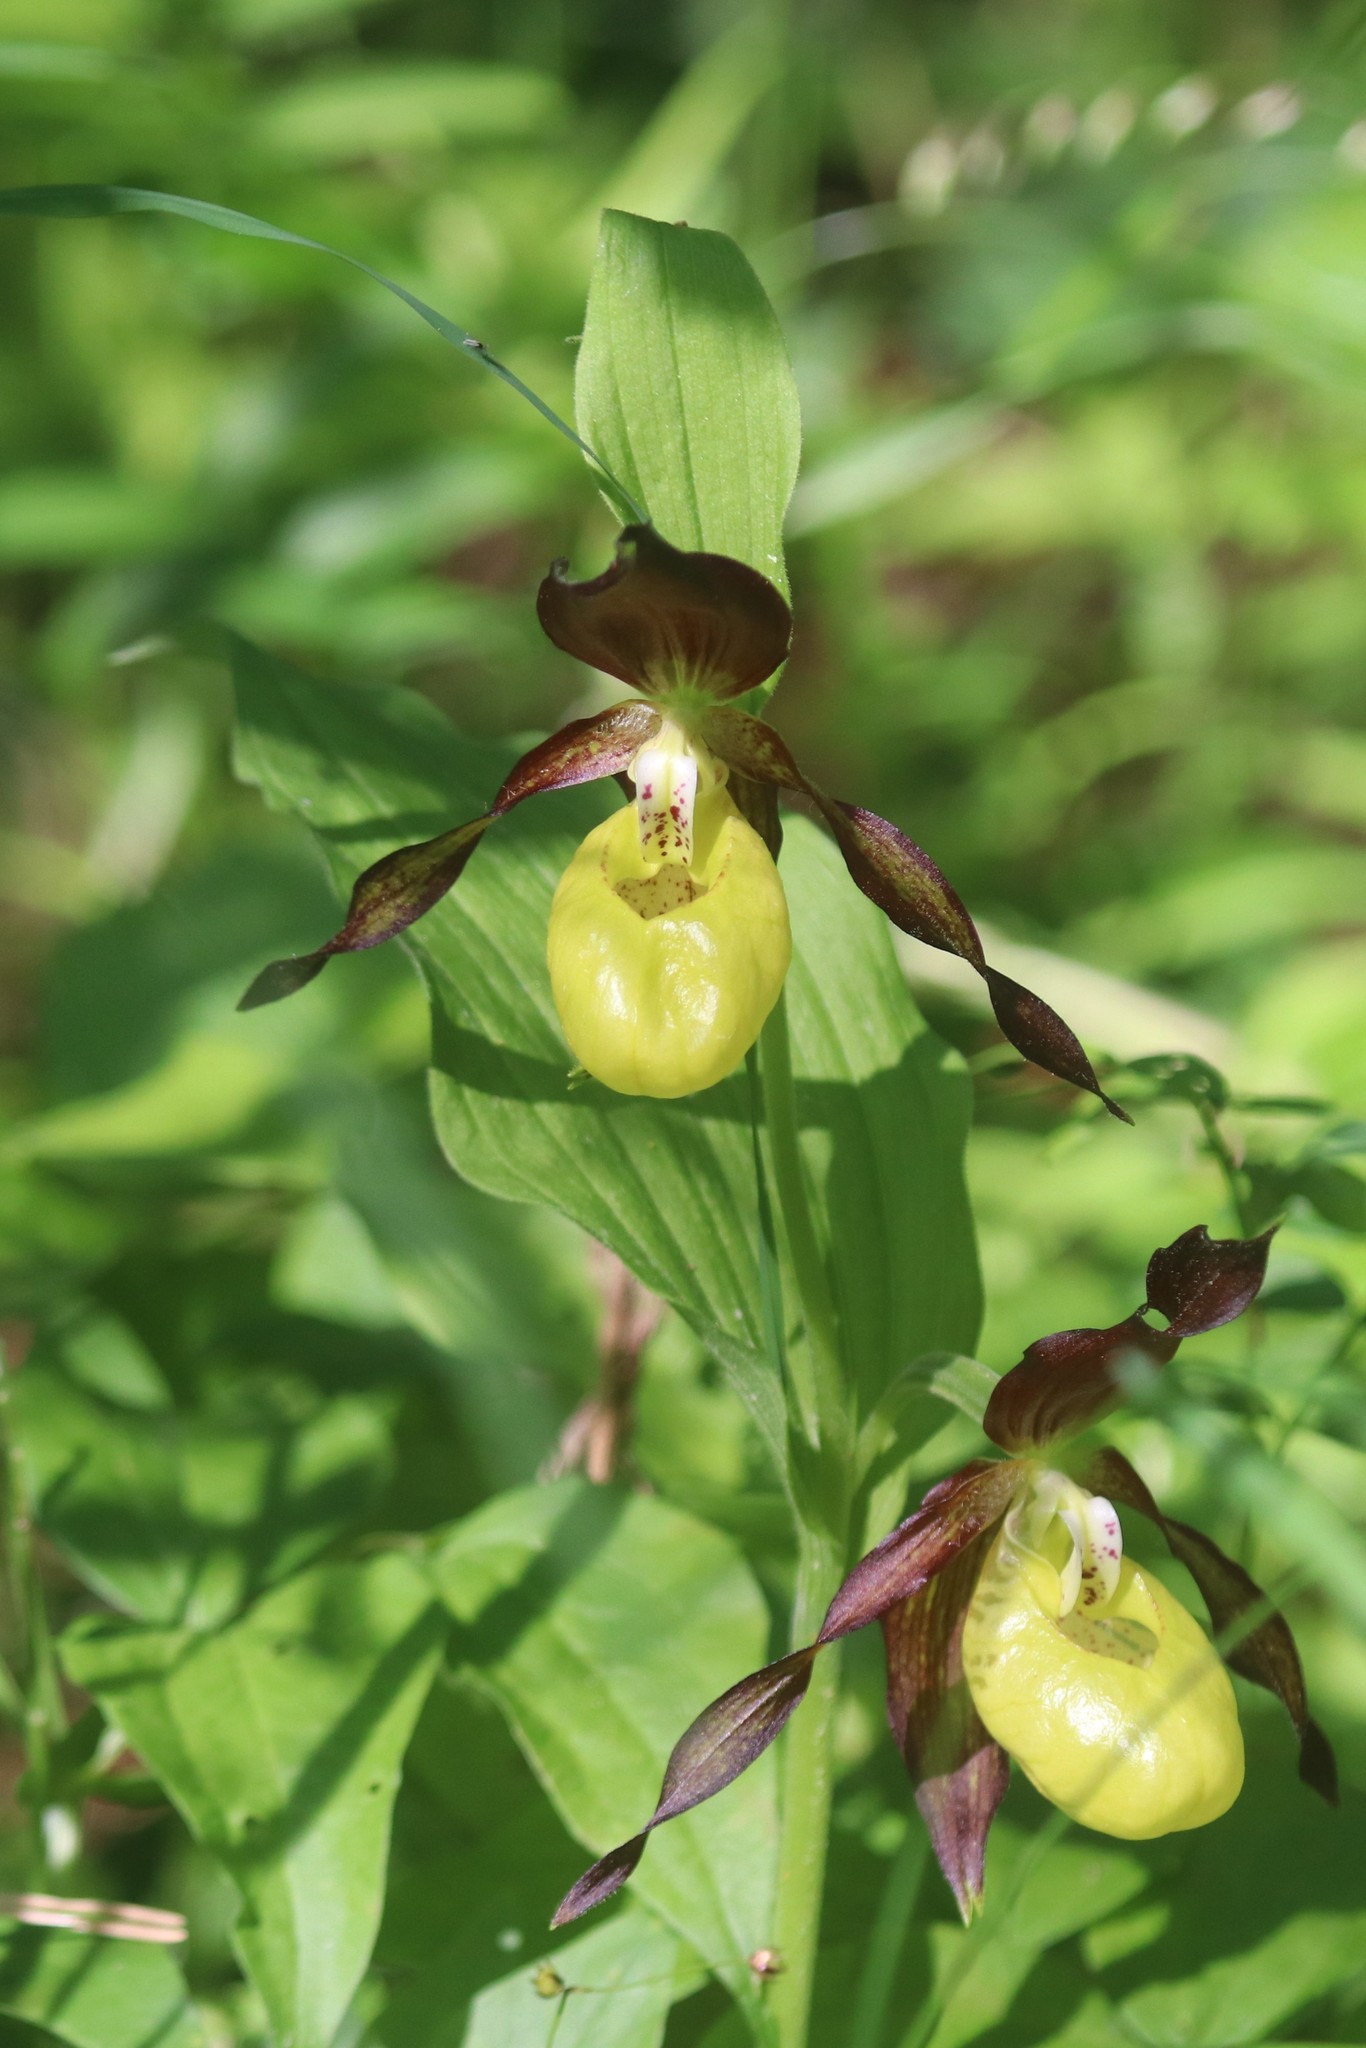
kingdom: Plantae
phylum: Tracheophyta
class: Liliopsida
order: Asparagales
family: Orchidaceae
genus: Cypripedium
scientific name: Cypripedium calceolus
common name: Lady's-slipper
